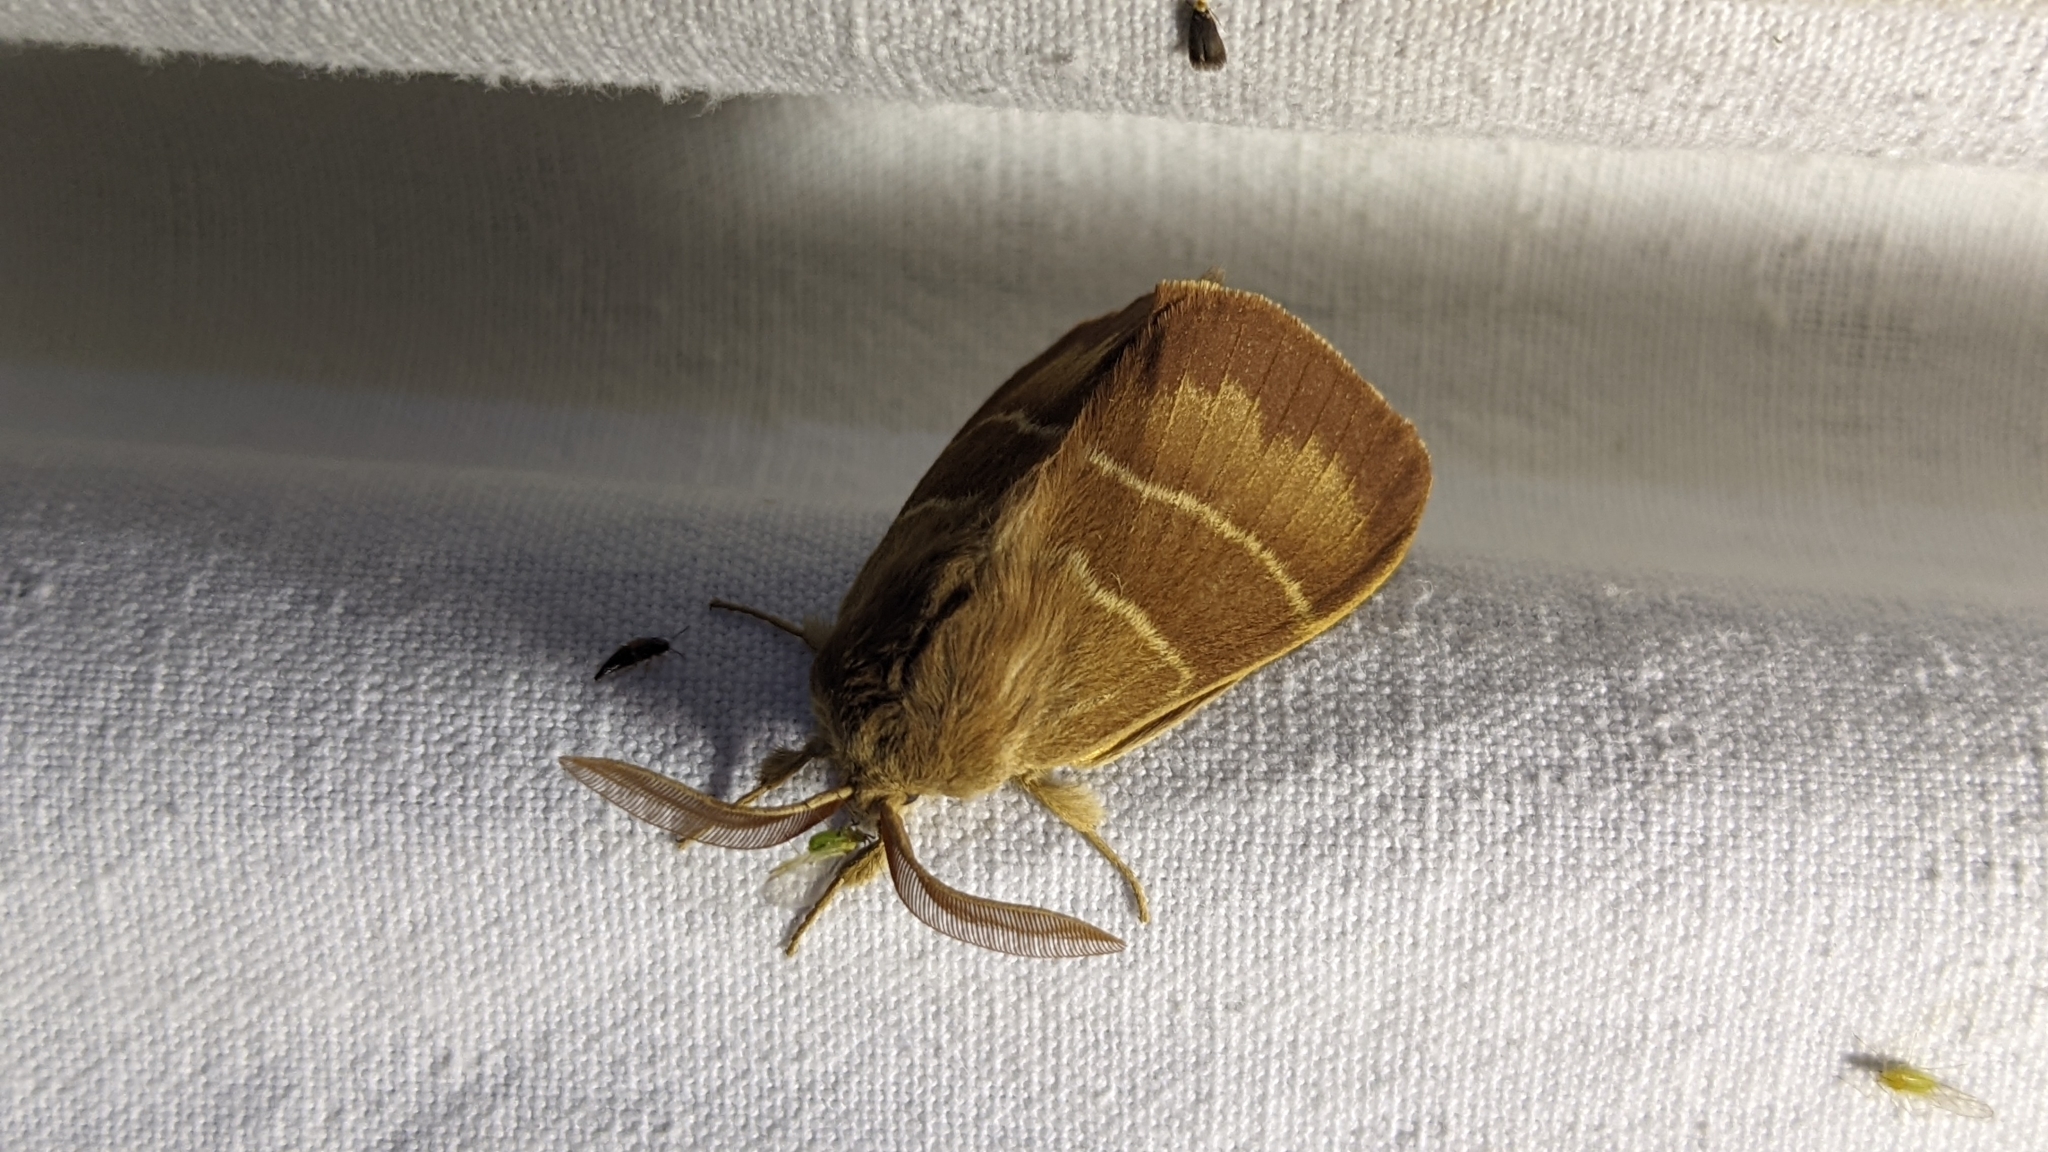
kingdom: Animalia
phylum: Arthropoda
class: Insecta
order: Lepidoptera
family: Lasiocampidae
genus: Macrothylacia
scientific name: Macrothylacia rubi
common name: Fox moth
